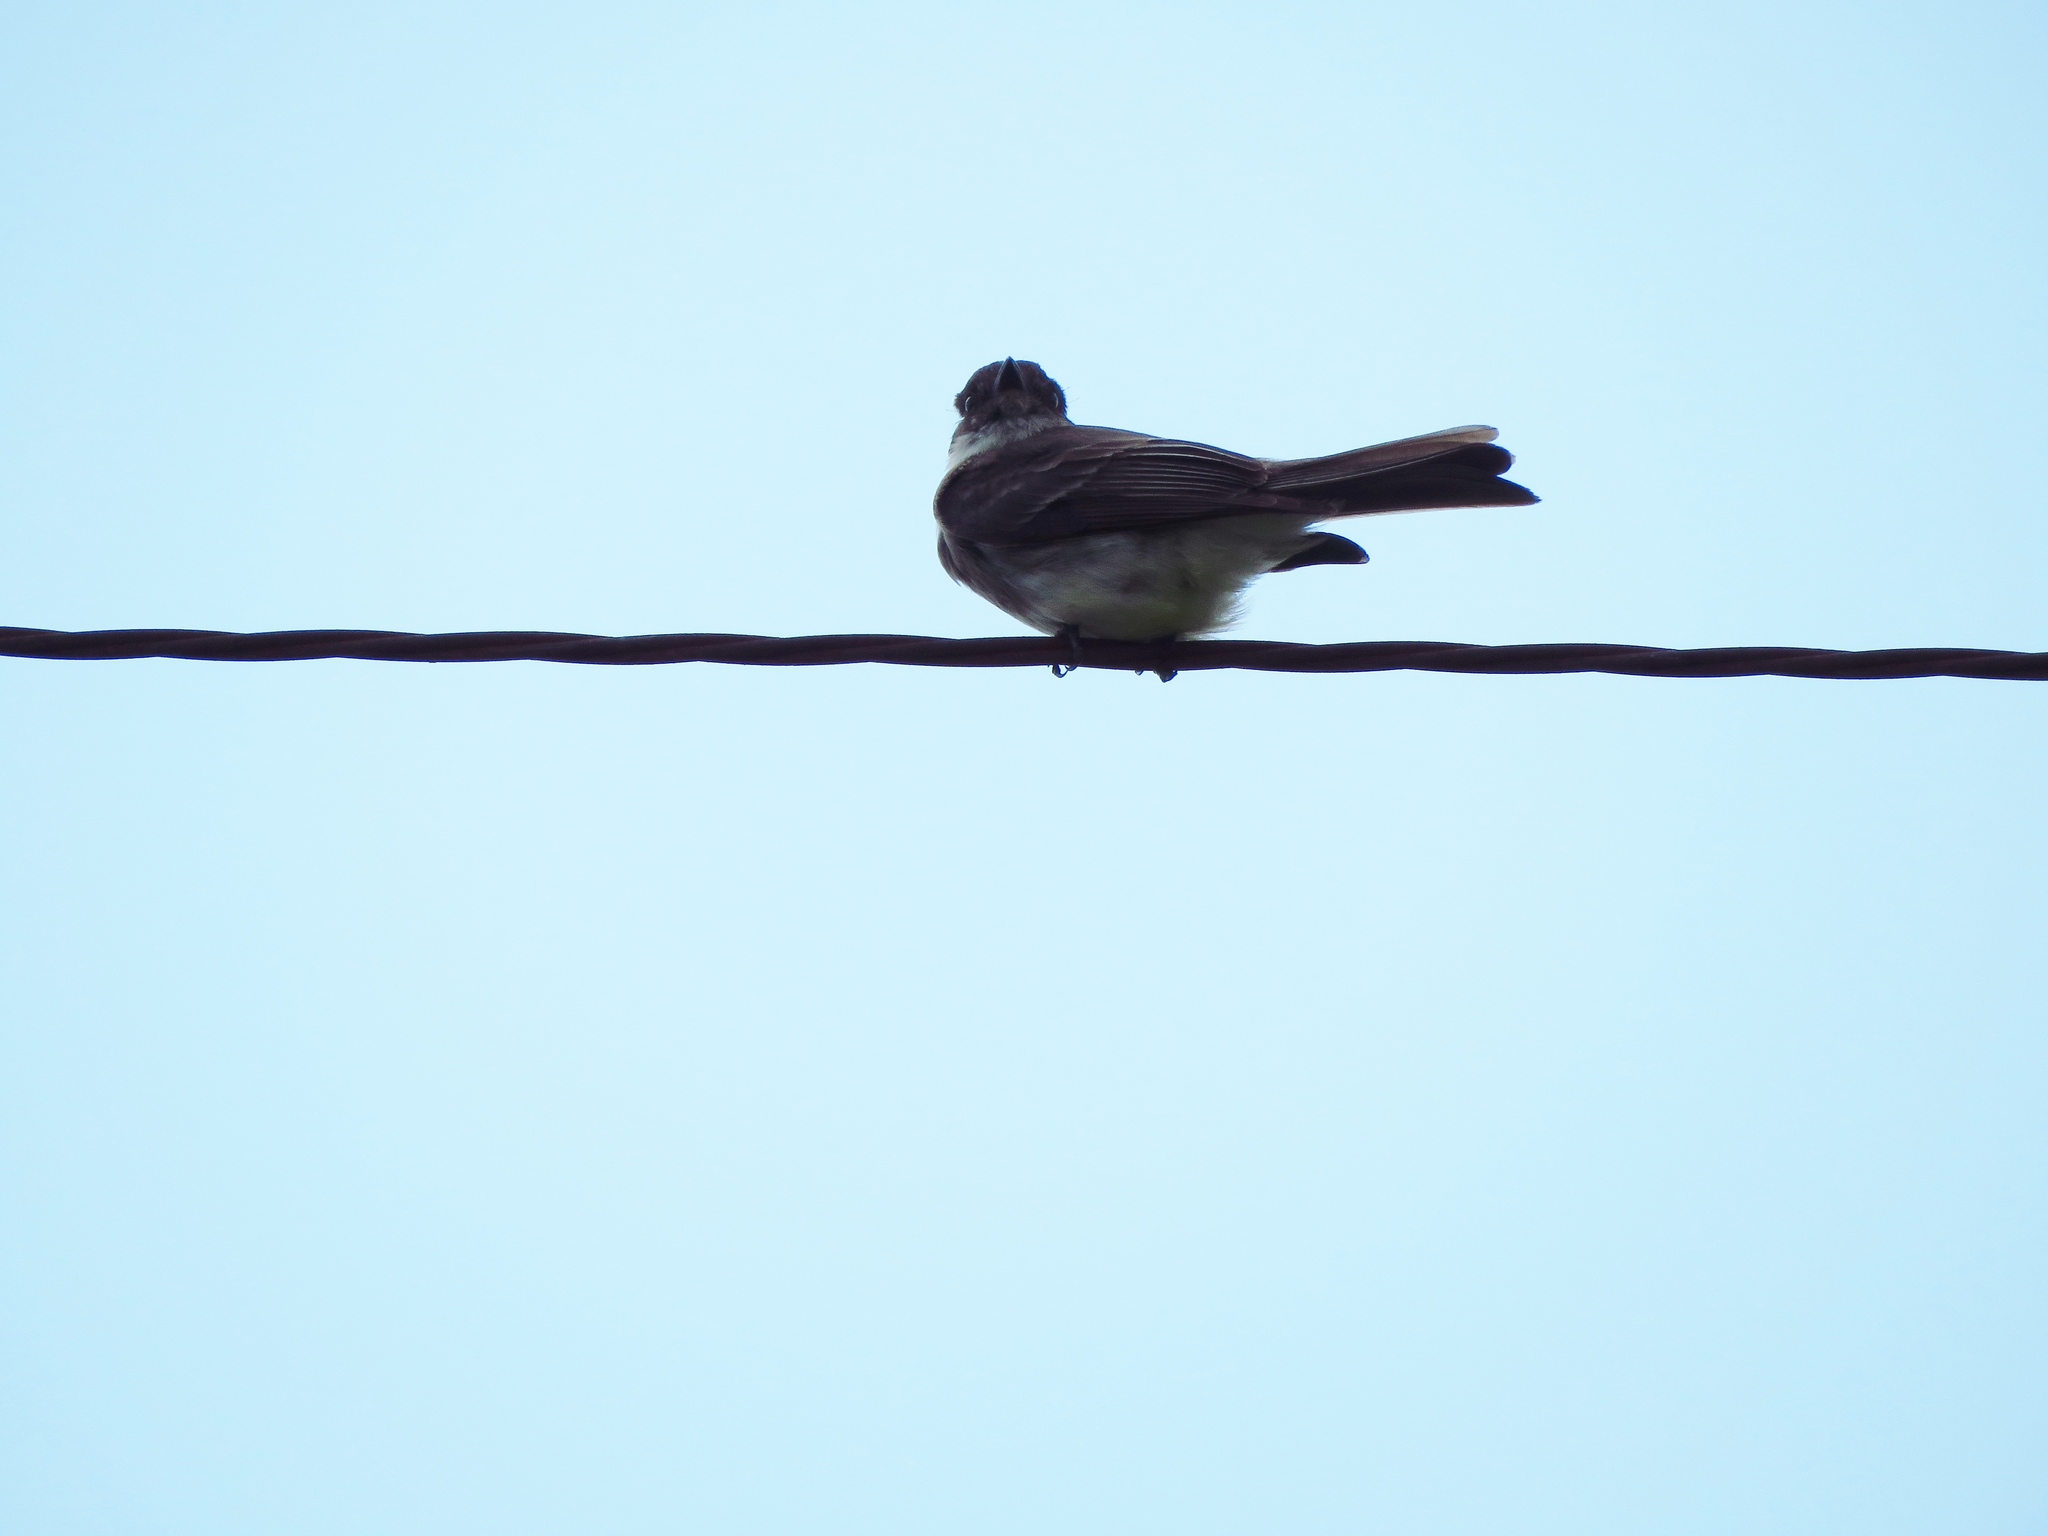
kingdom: Animalia
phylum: Chordata
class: Aves
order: Passeriformes
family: Tyrannidae
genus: Sayornis
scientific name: Sayornis phoebe
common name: Eastern phoebe
